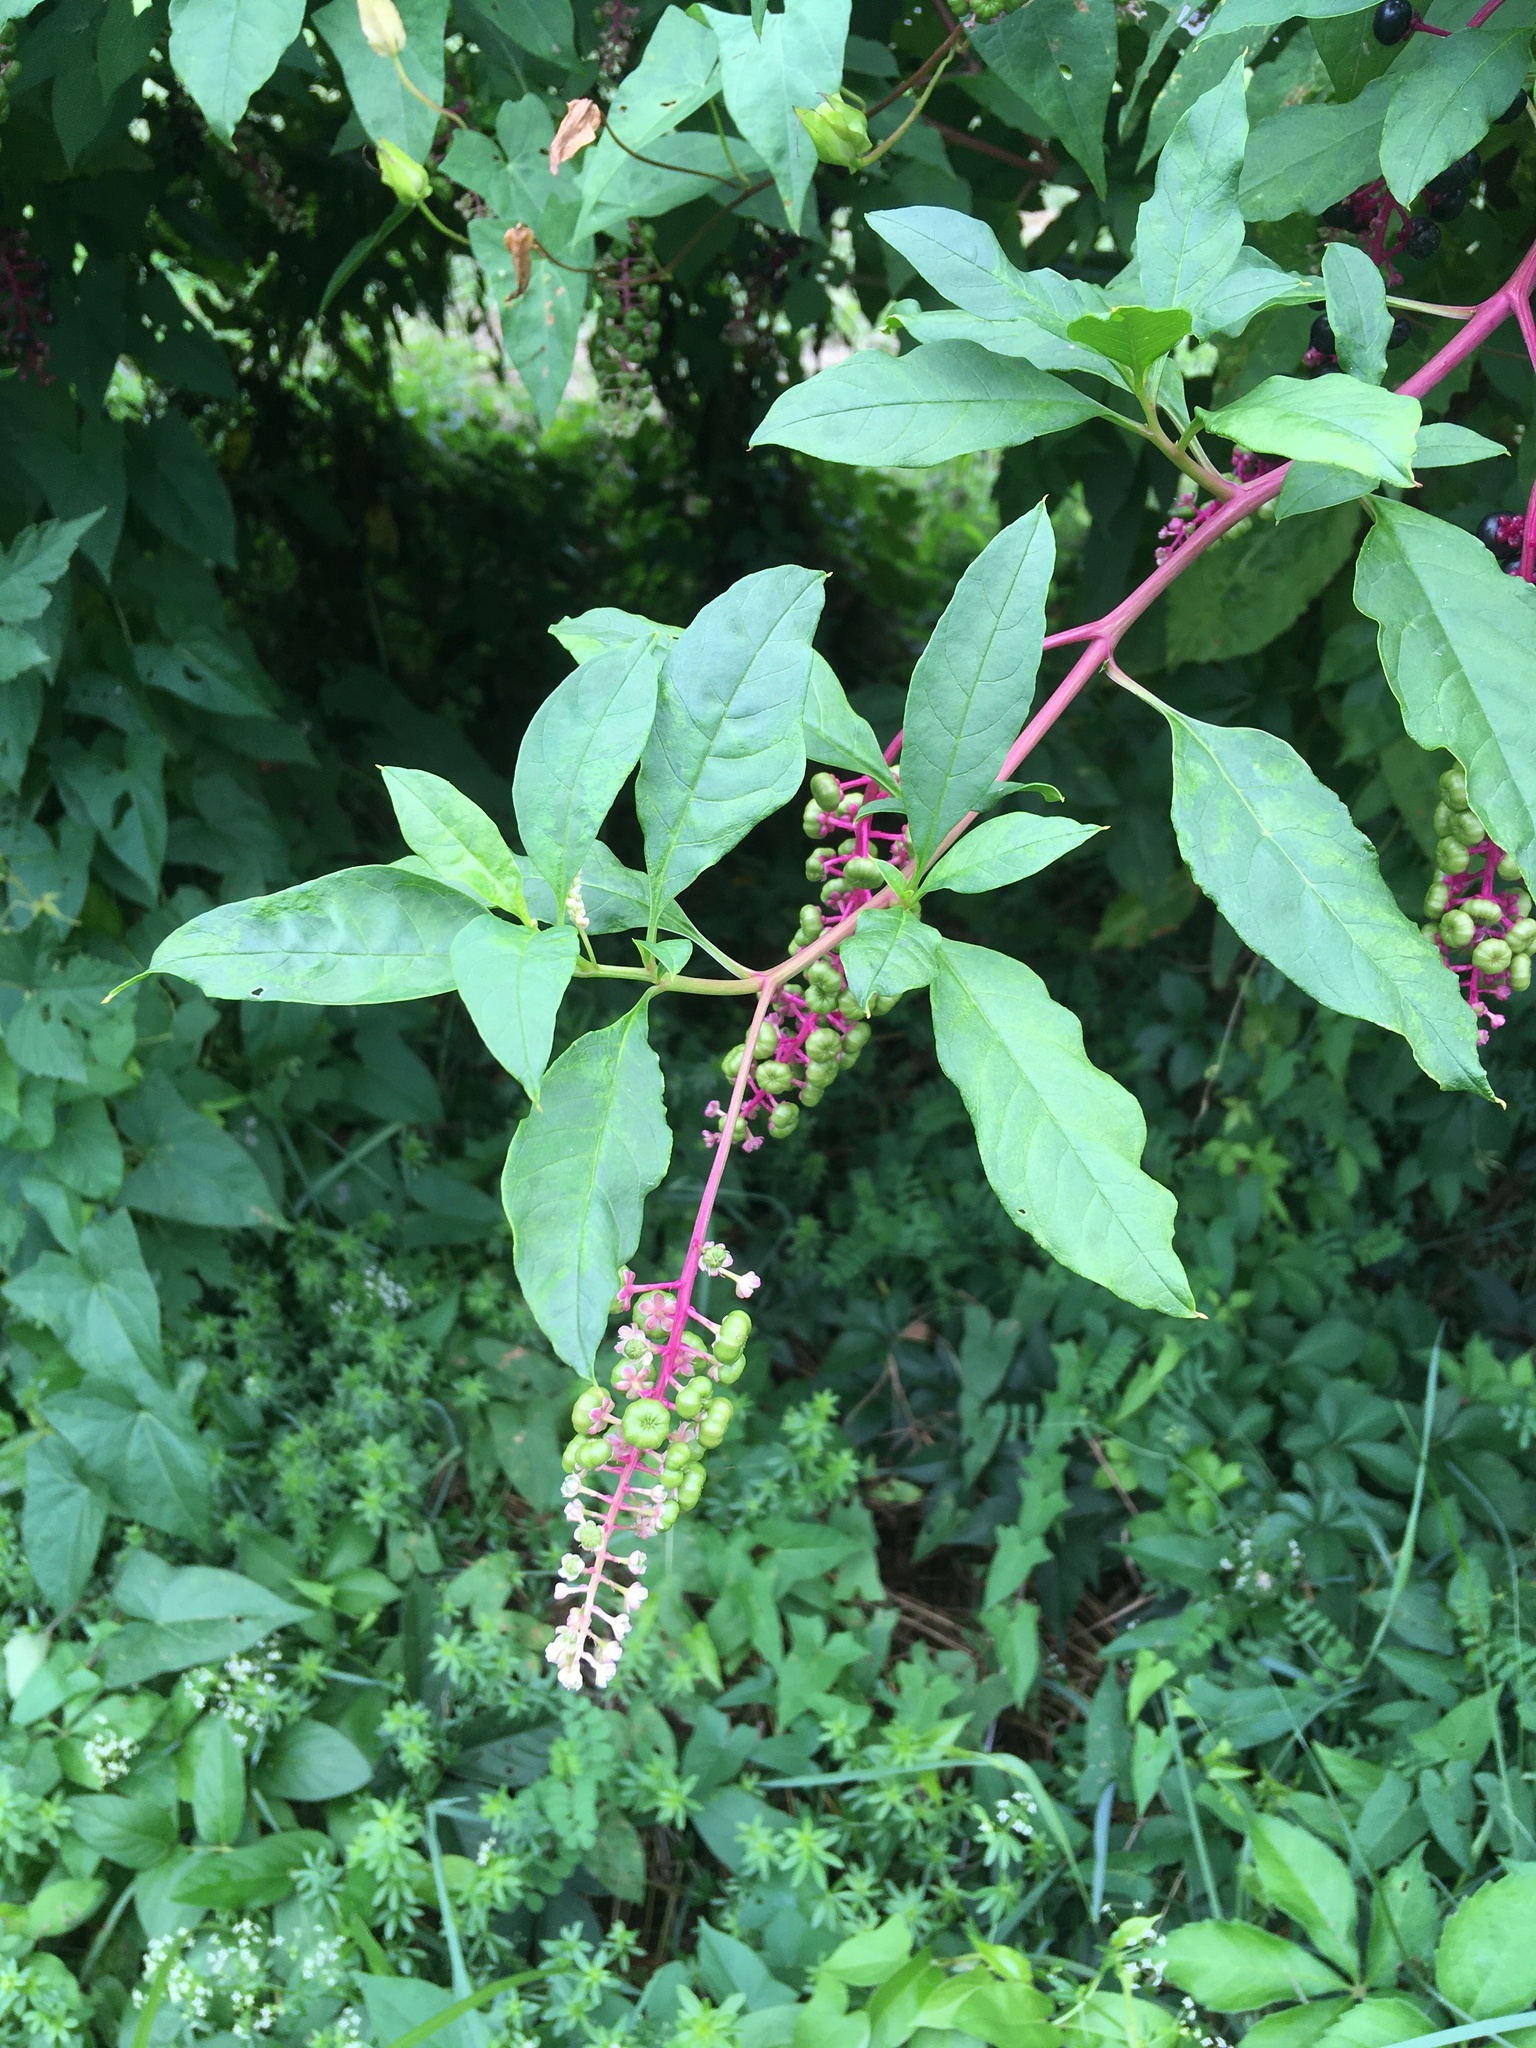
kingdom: Plantae
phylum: Tracheophyta
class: Magnoliopsida
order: Caryophyllales
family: Phytolaccaceae
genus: Phytolacca
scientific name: Phytolacca americana
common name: American pokeweed
